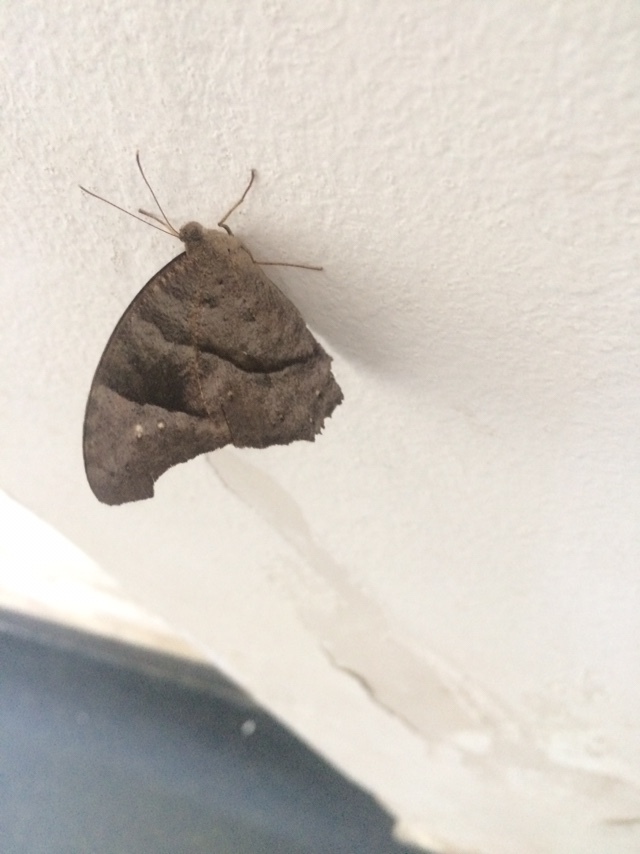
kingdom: Animalia
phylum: Arthropoda
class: Insecta
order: Lepidoptera
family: Nymphalidae
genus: Melanitis
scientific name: Melanitis leda
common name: Twilight brown
